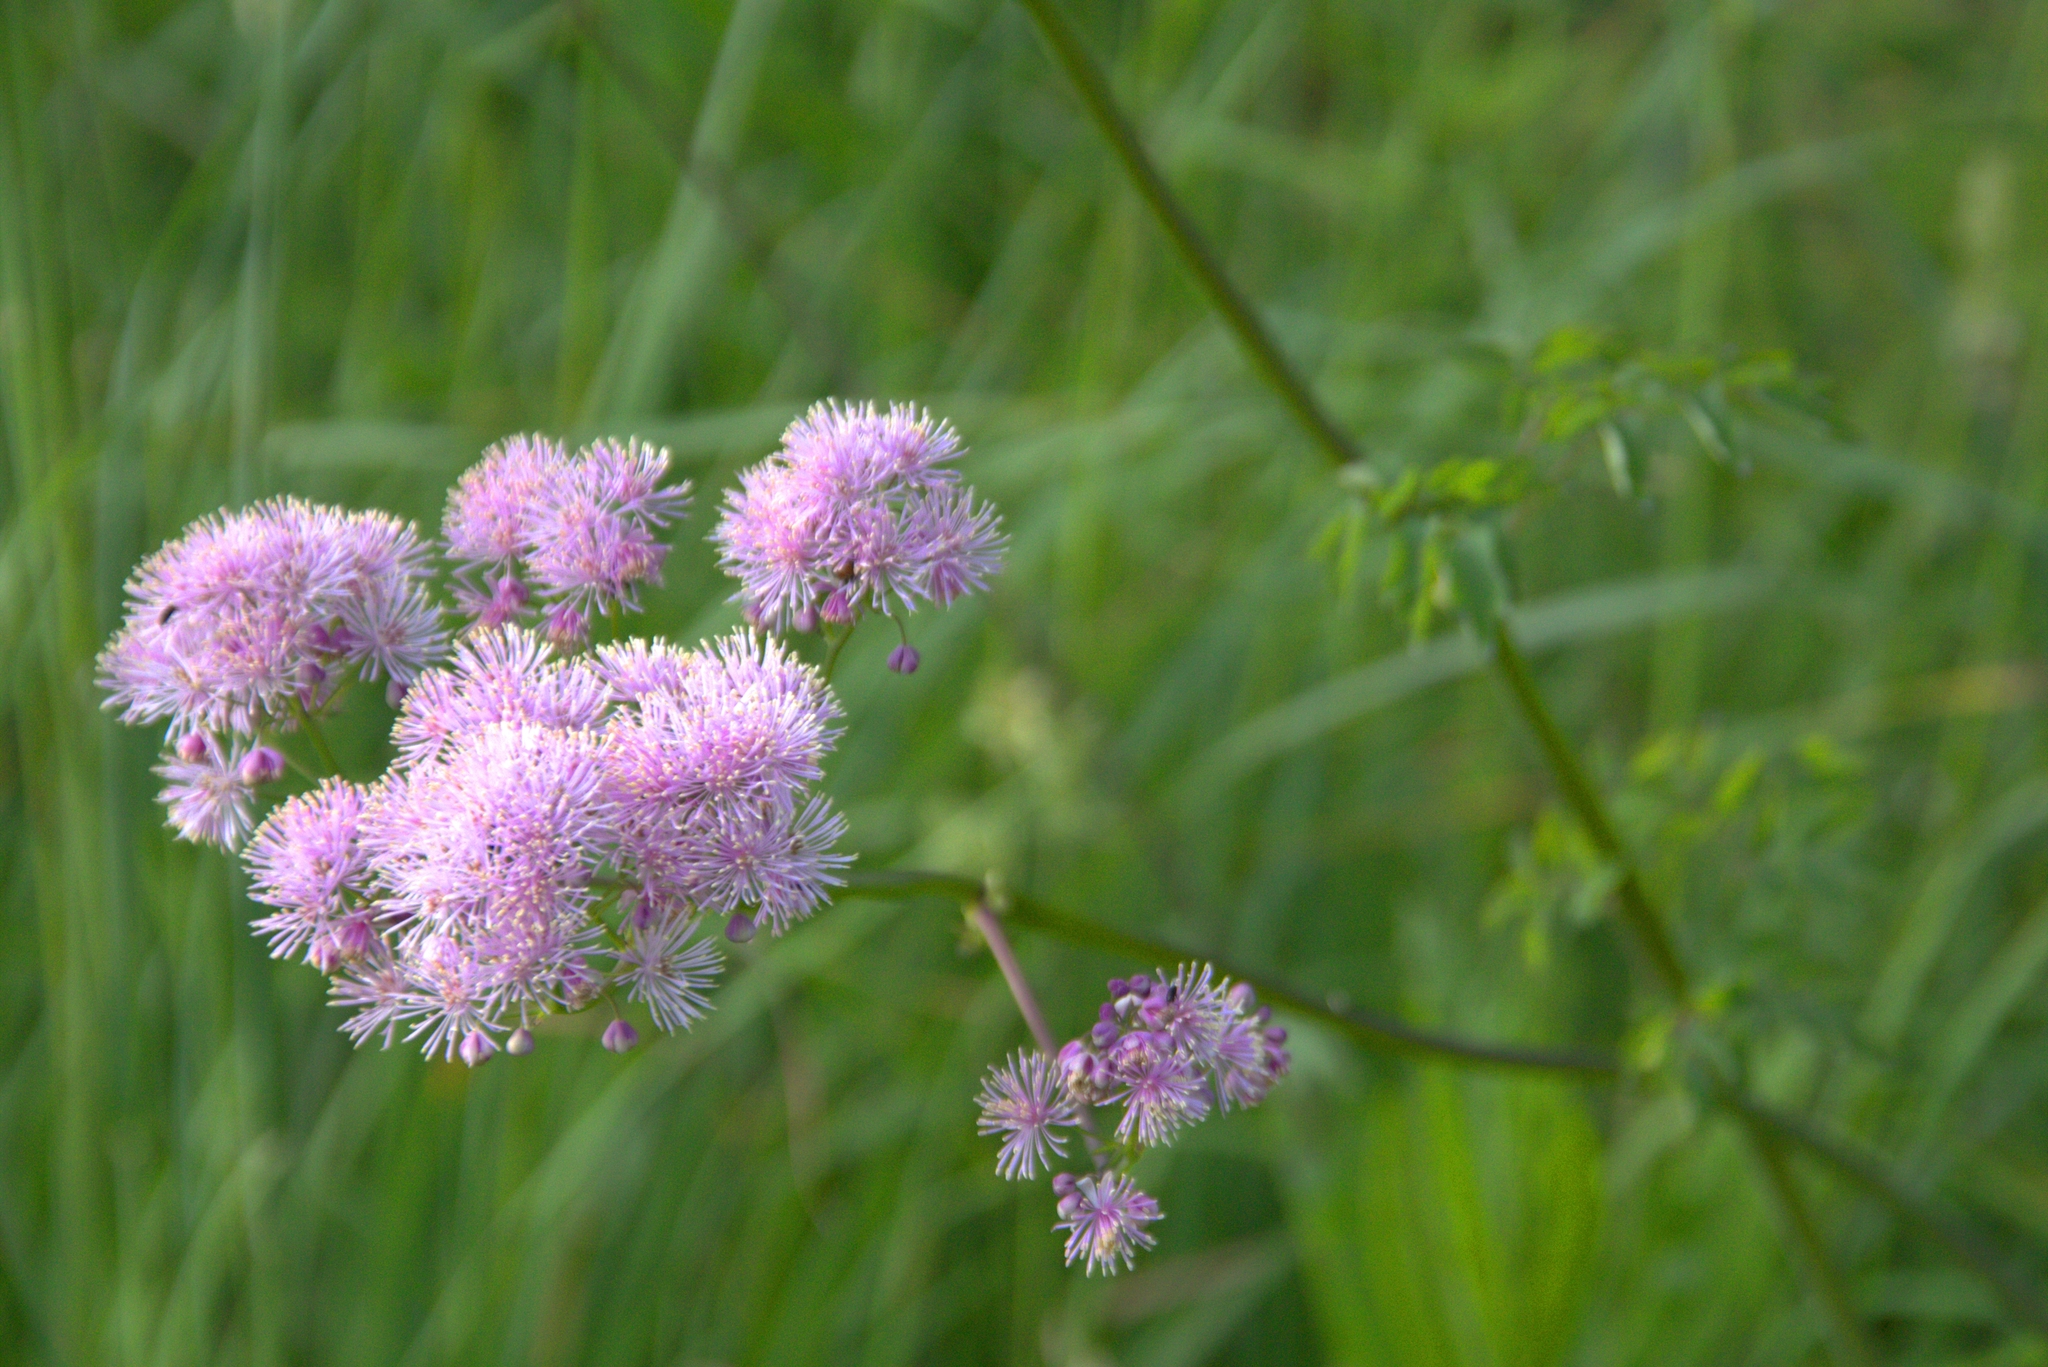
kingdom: Plantae
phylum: Tracheophyta
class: Magnoliopsida
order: Ranunculales
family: Ranunculaceae
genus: Thalictrum
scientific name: Thalictrum aquilegiifolium
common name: French meadow-rue
